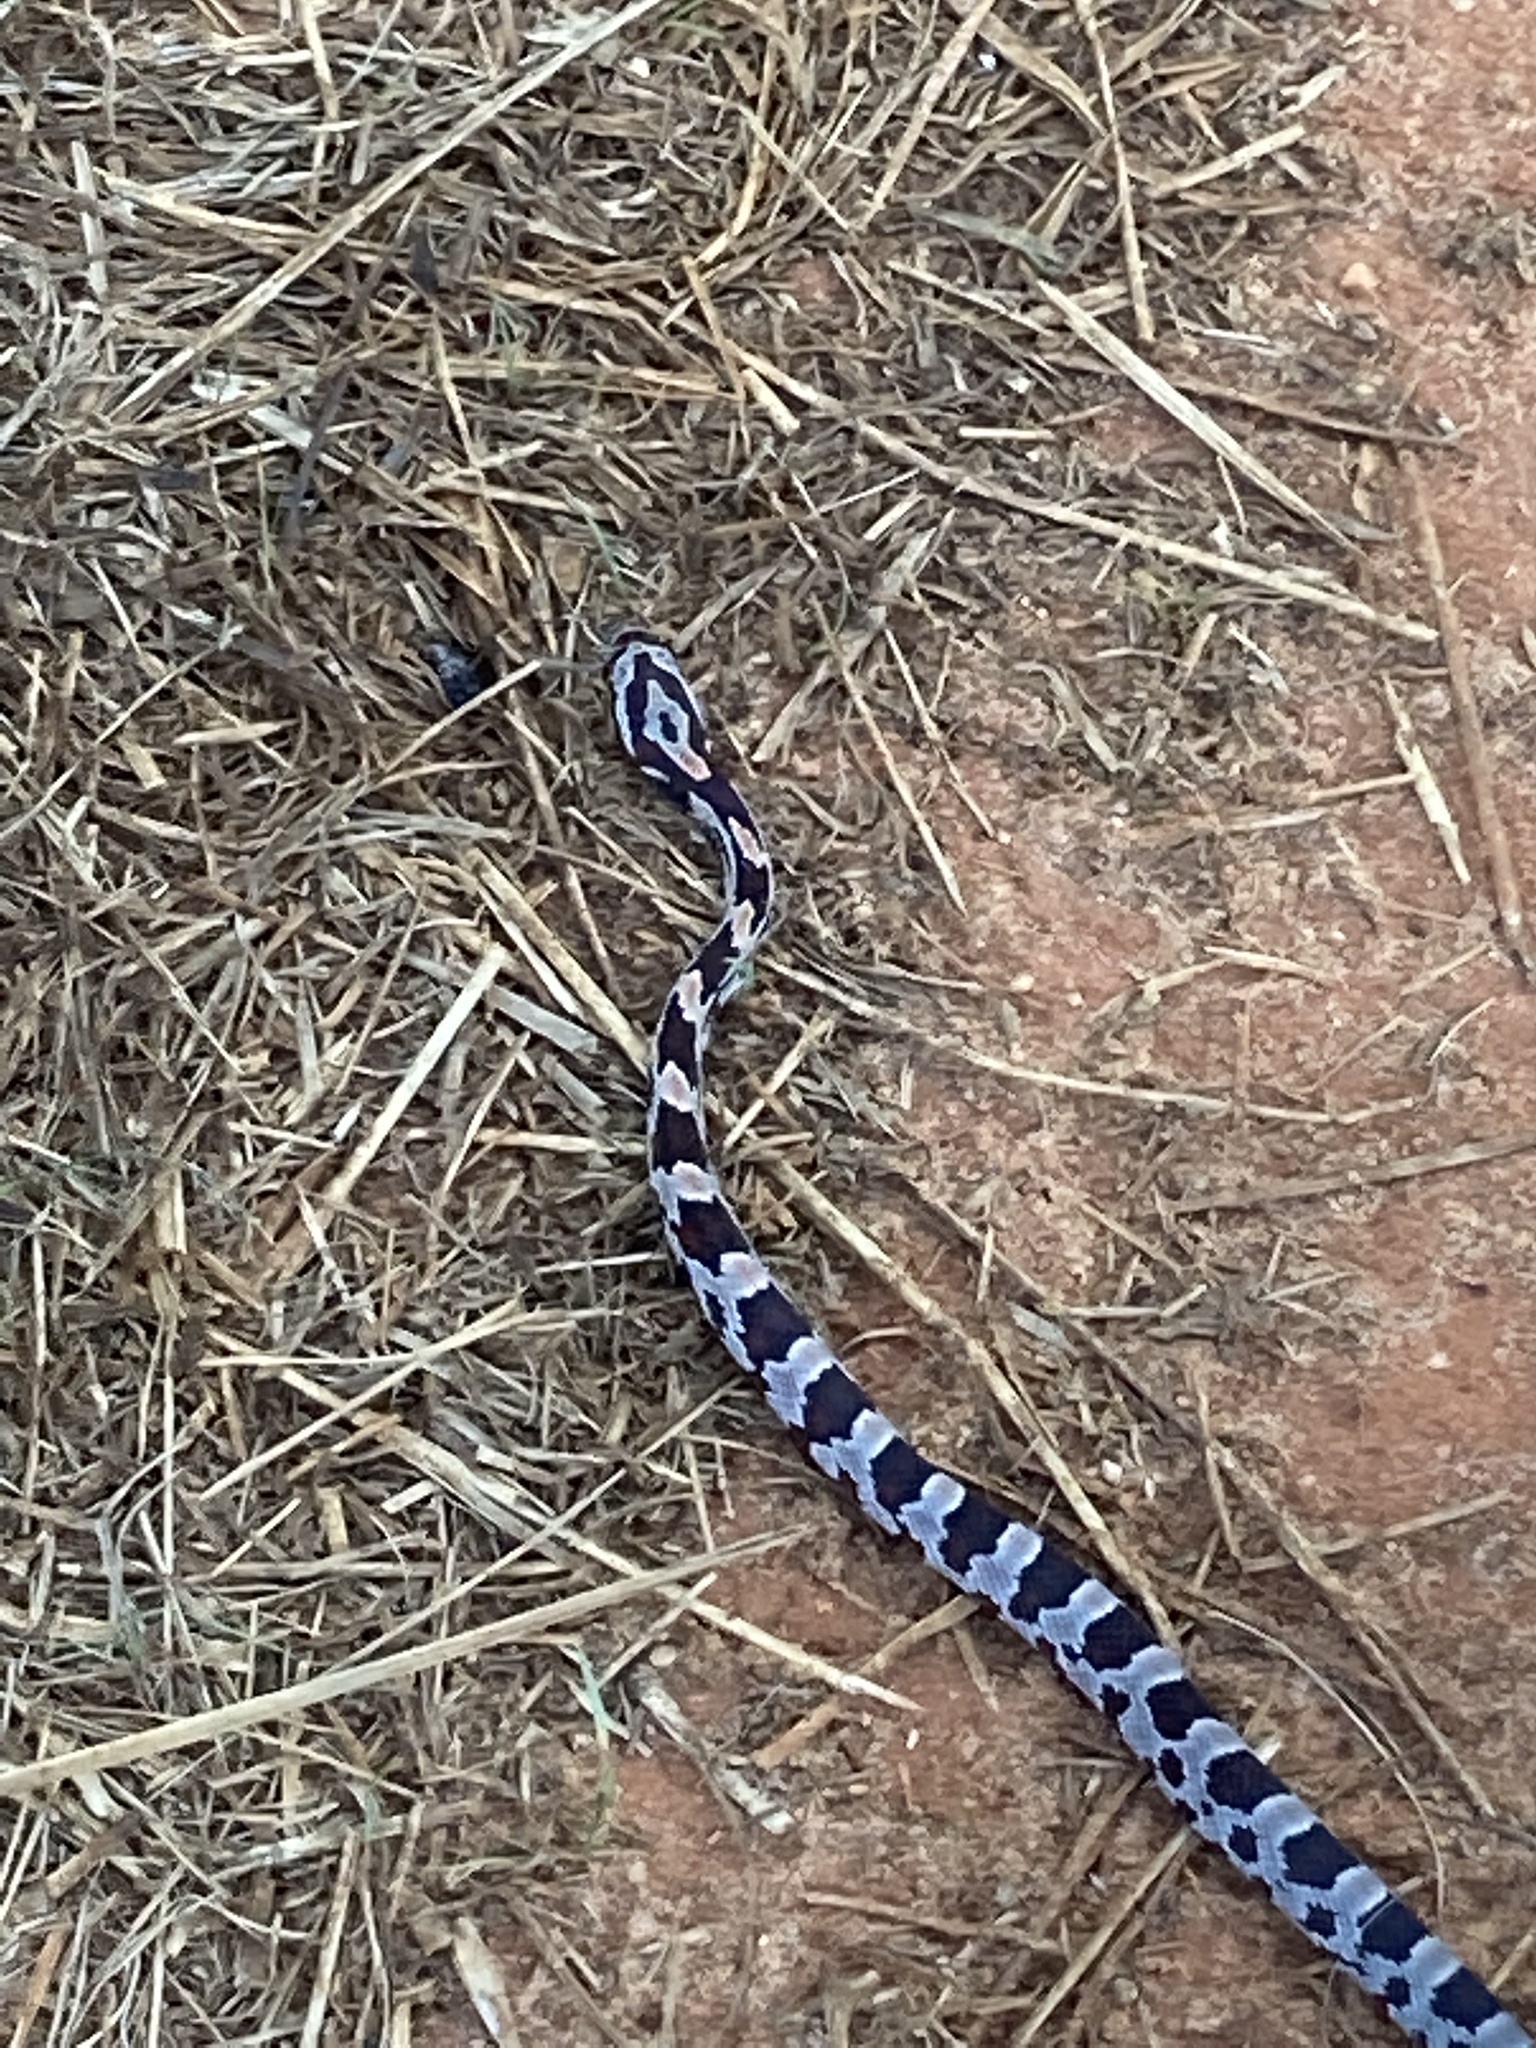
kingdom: Animalia
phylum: Chordata
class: Squamata
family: Colubridae
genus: Pantherophis
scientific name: Pantherophis guttatus
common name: Red cornsnake
